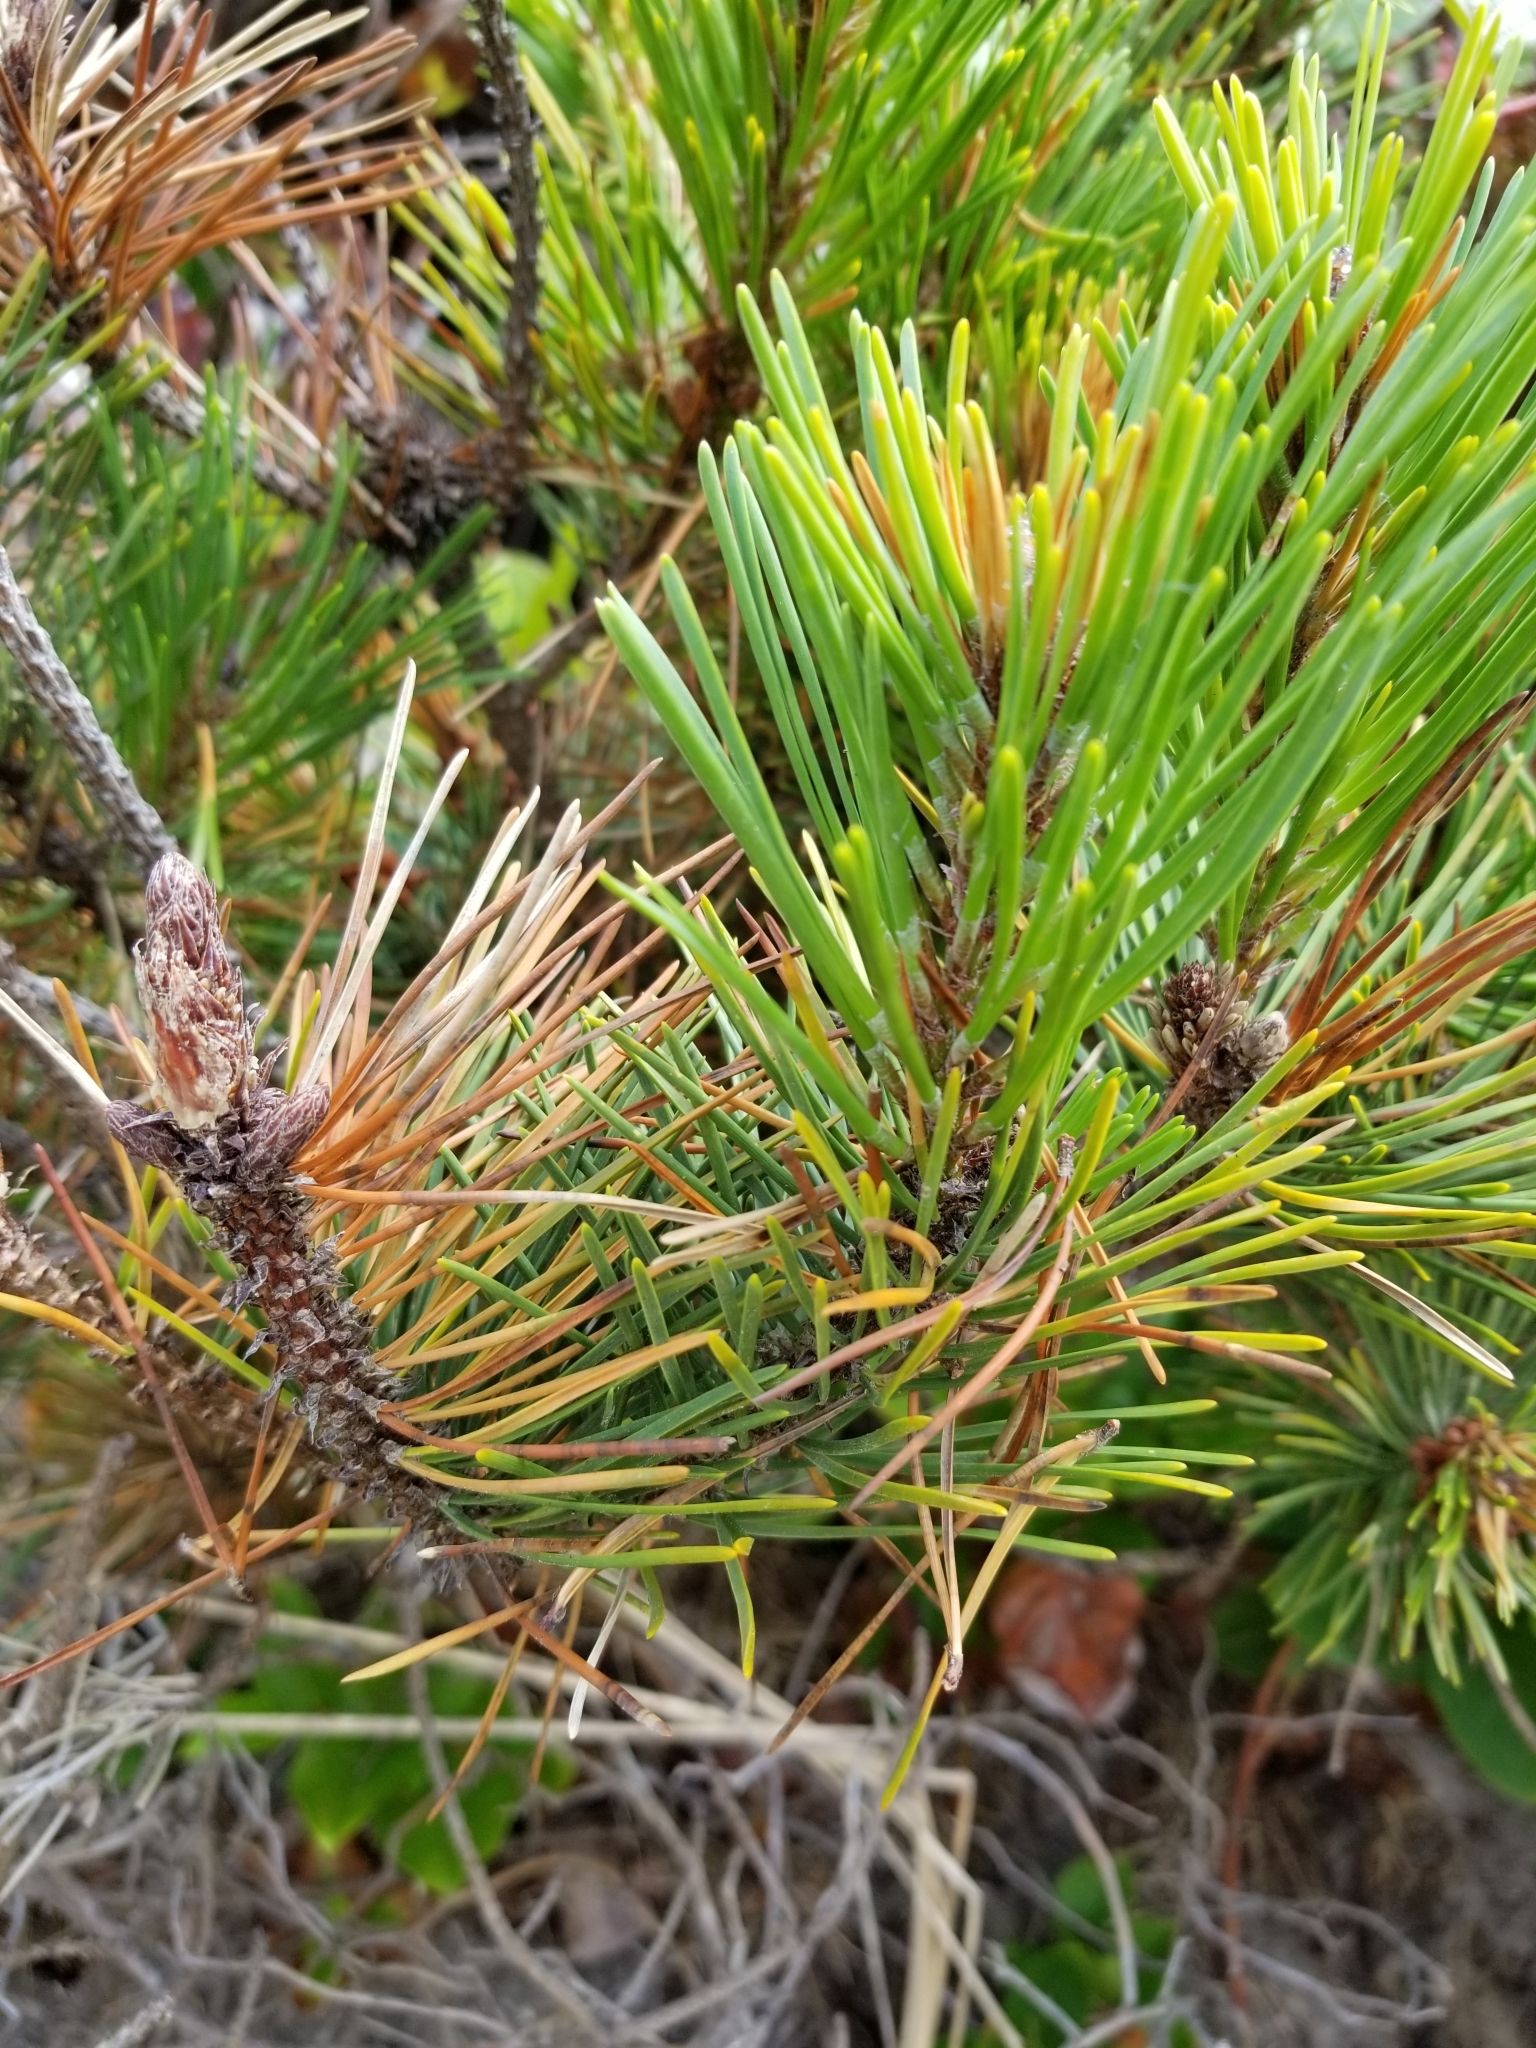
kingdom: Plantae
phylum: Tracheophyta
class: Pinopsida
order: Pinales
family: Pinaceae
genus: Pinus
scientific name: Pinus contorta
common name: Lodgepole pine
